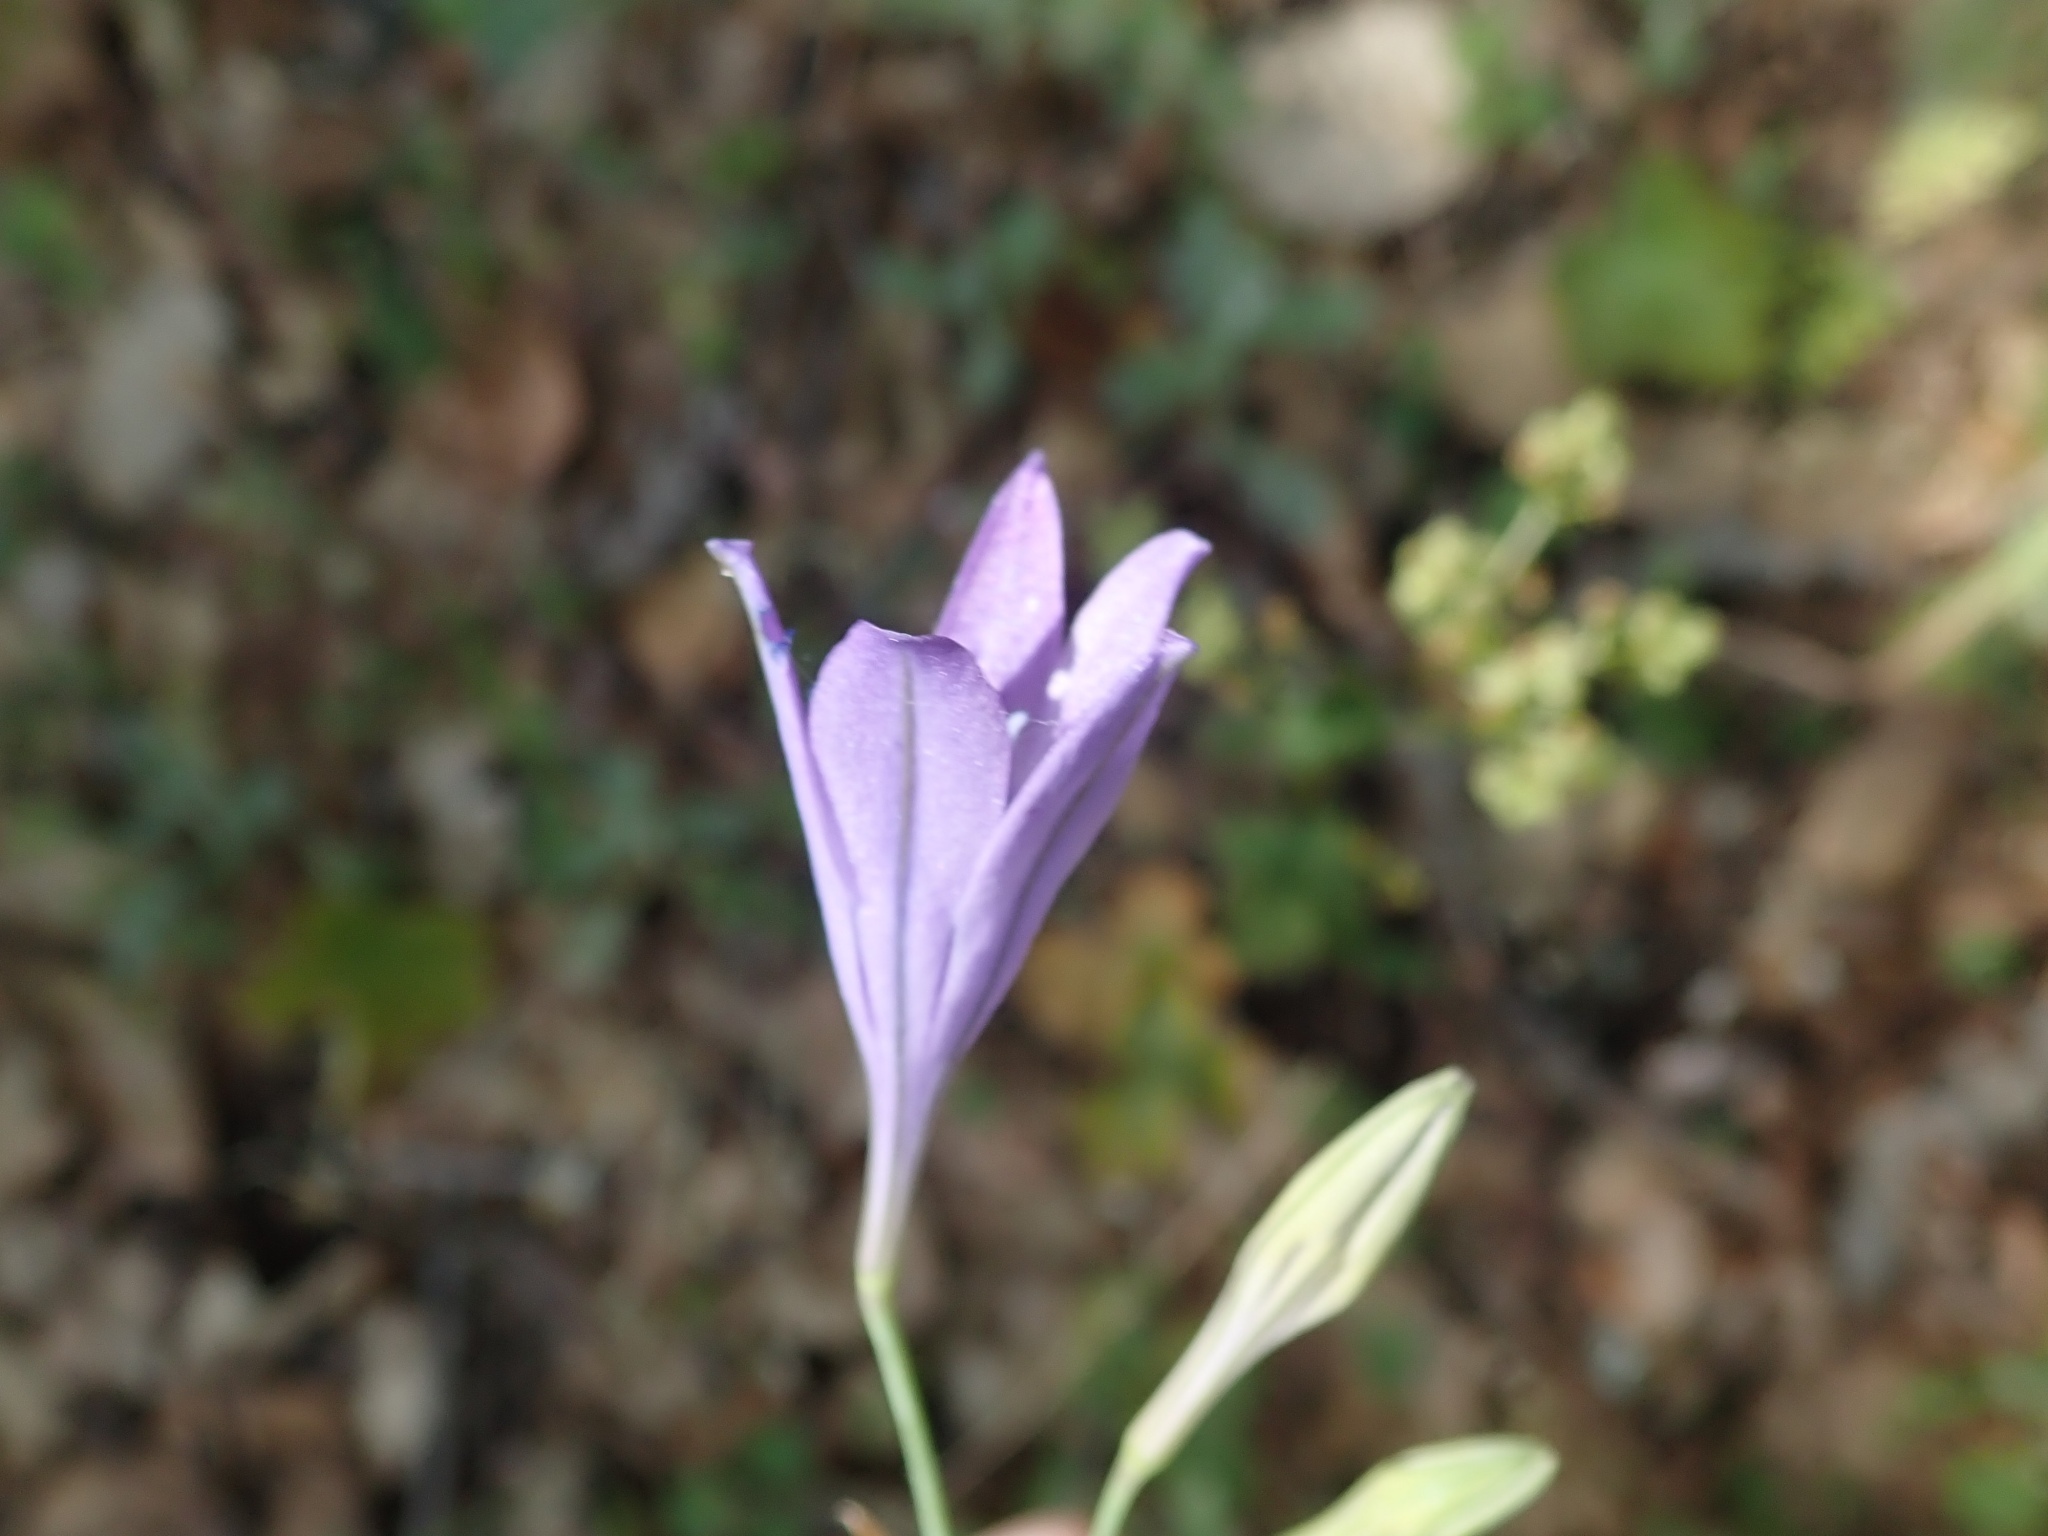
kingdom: Plantae
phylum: Tracheophyta
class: Liliopsida
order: Asparagales
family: Asparagaceae
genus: Triteleia
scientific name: Triteleia laxa
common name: Triplet-lily
